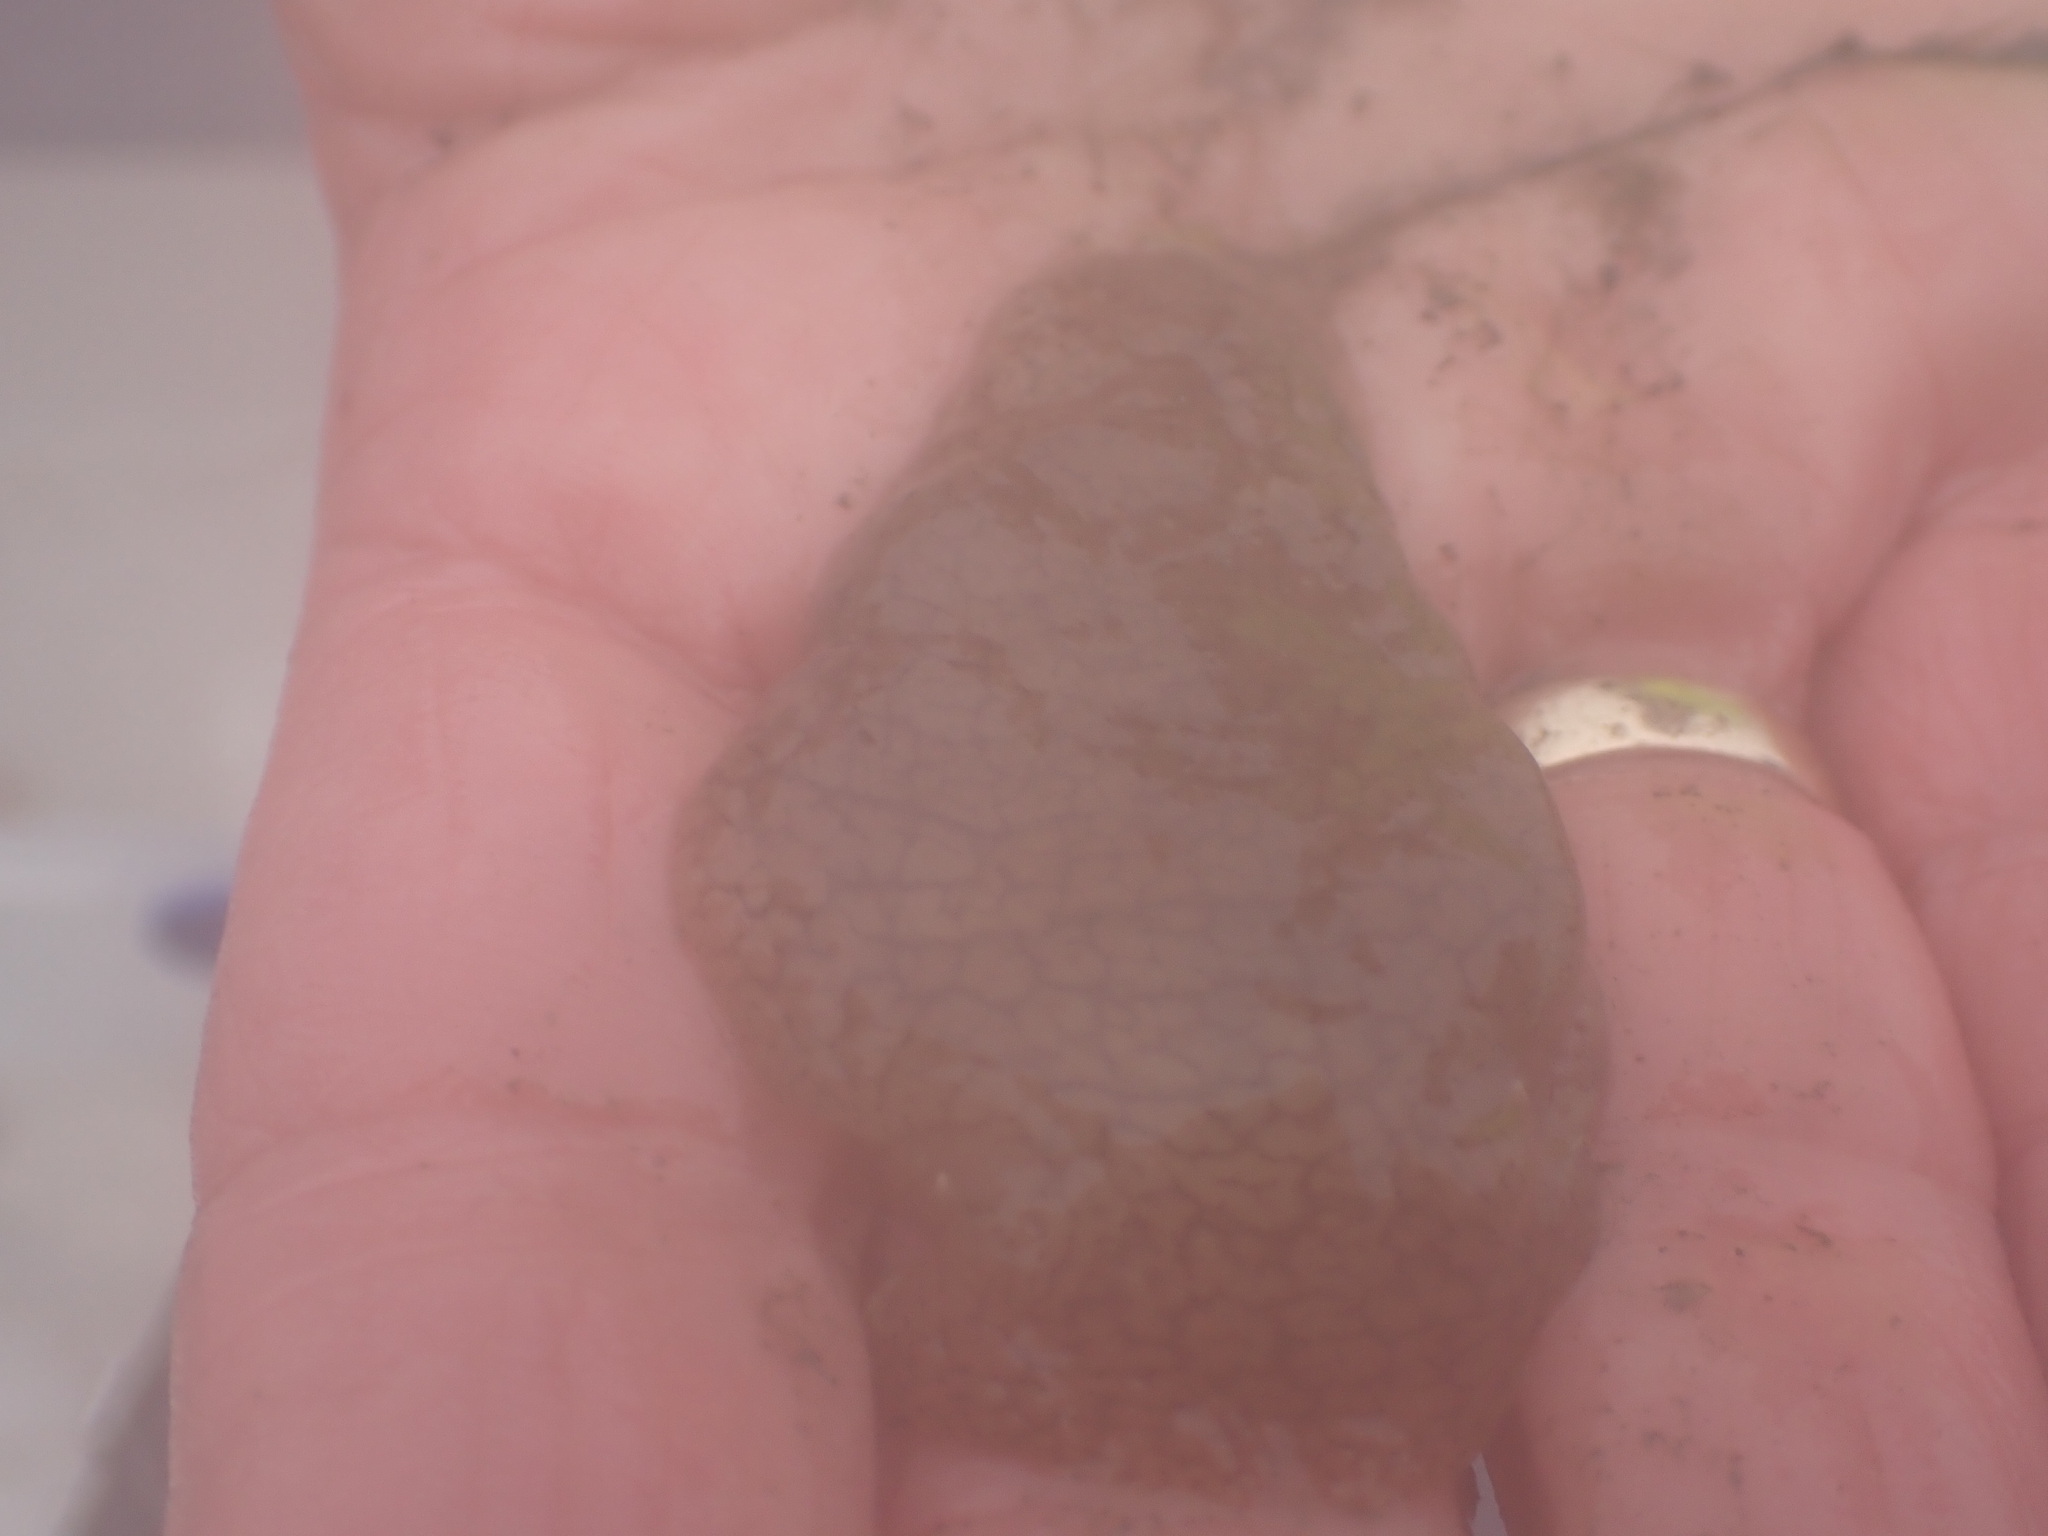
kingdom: Animalia
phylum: Mollusca
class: Gastropoda
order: Pleurobranchida
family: Pleurobranchaeidae
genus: Pleurobranchaea
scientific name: Pleurobranchaea maculata
